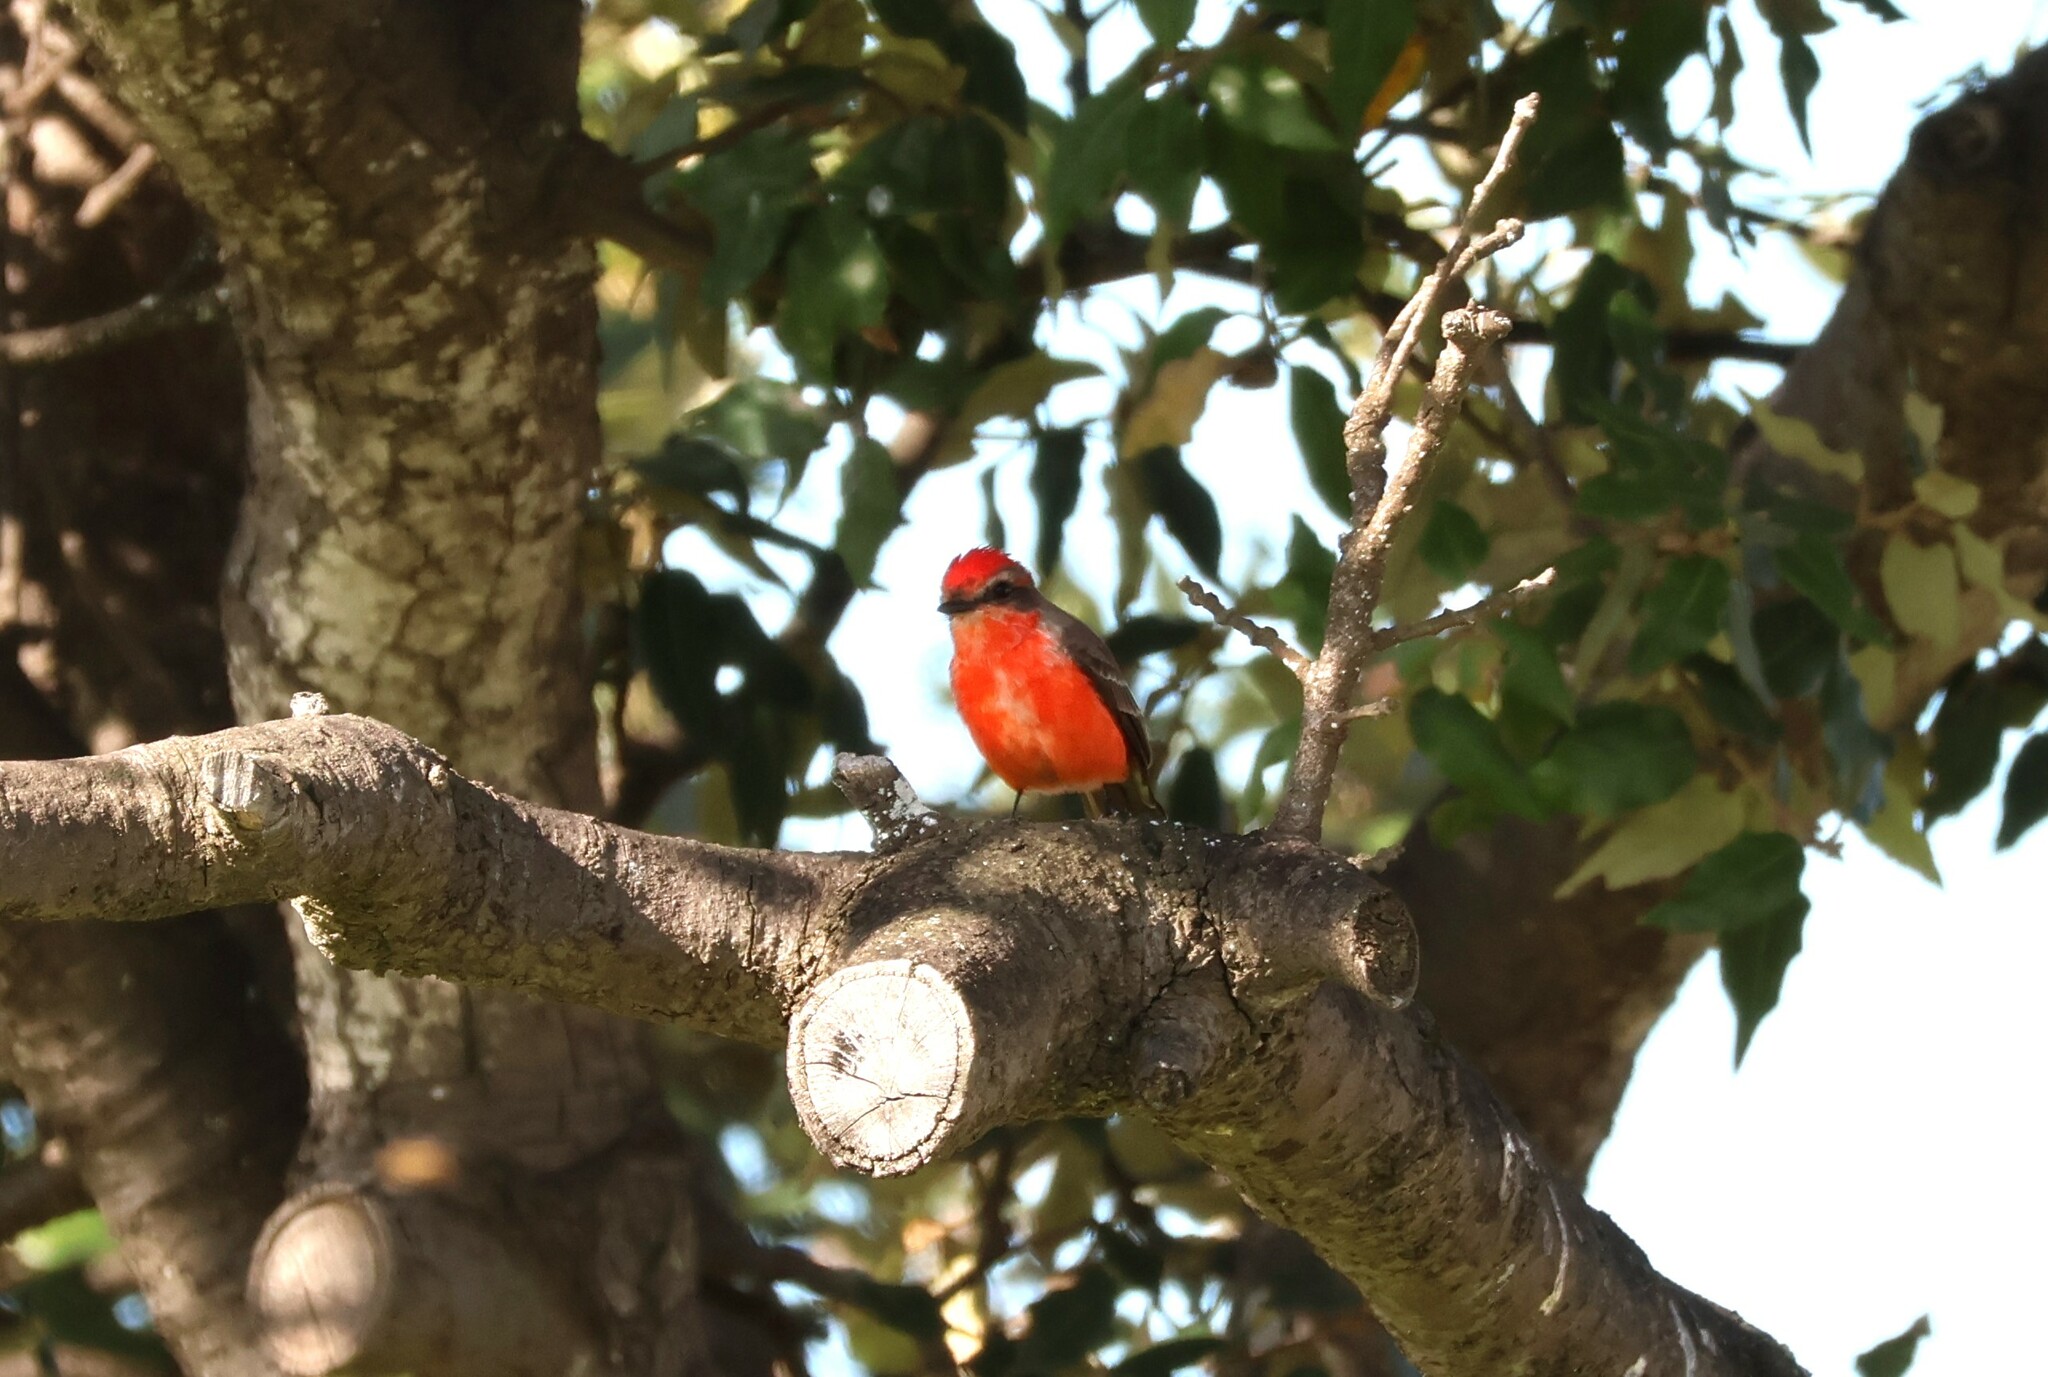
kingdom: Animalia
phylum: Chordata
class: Aves
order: Passeriformes
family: Tyrannidae
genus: Pyrocephalus
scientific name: Pyrocephalus rubinus
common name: Vermilion flycatcher
